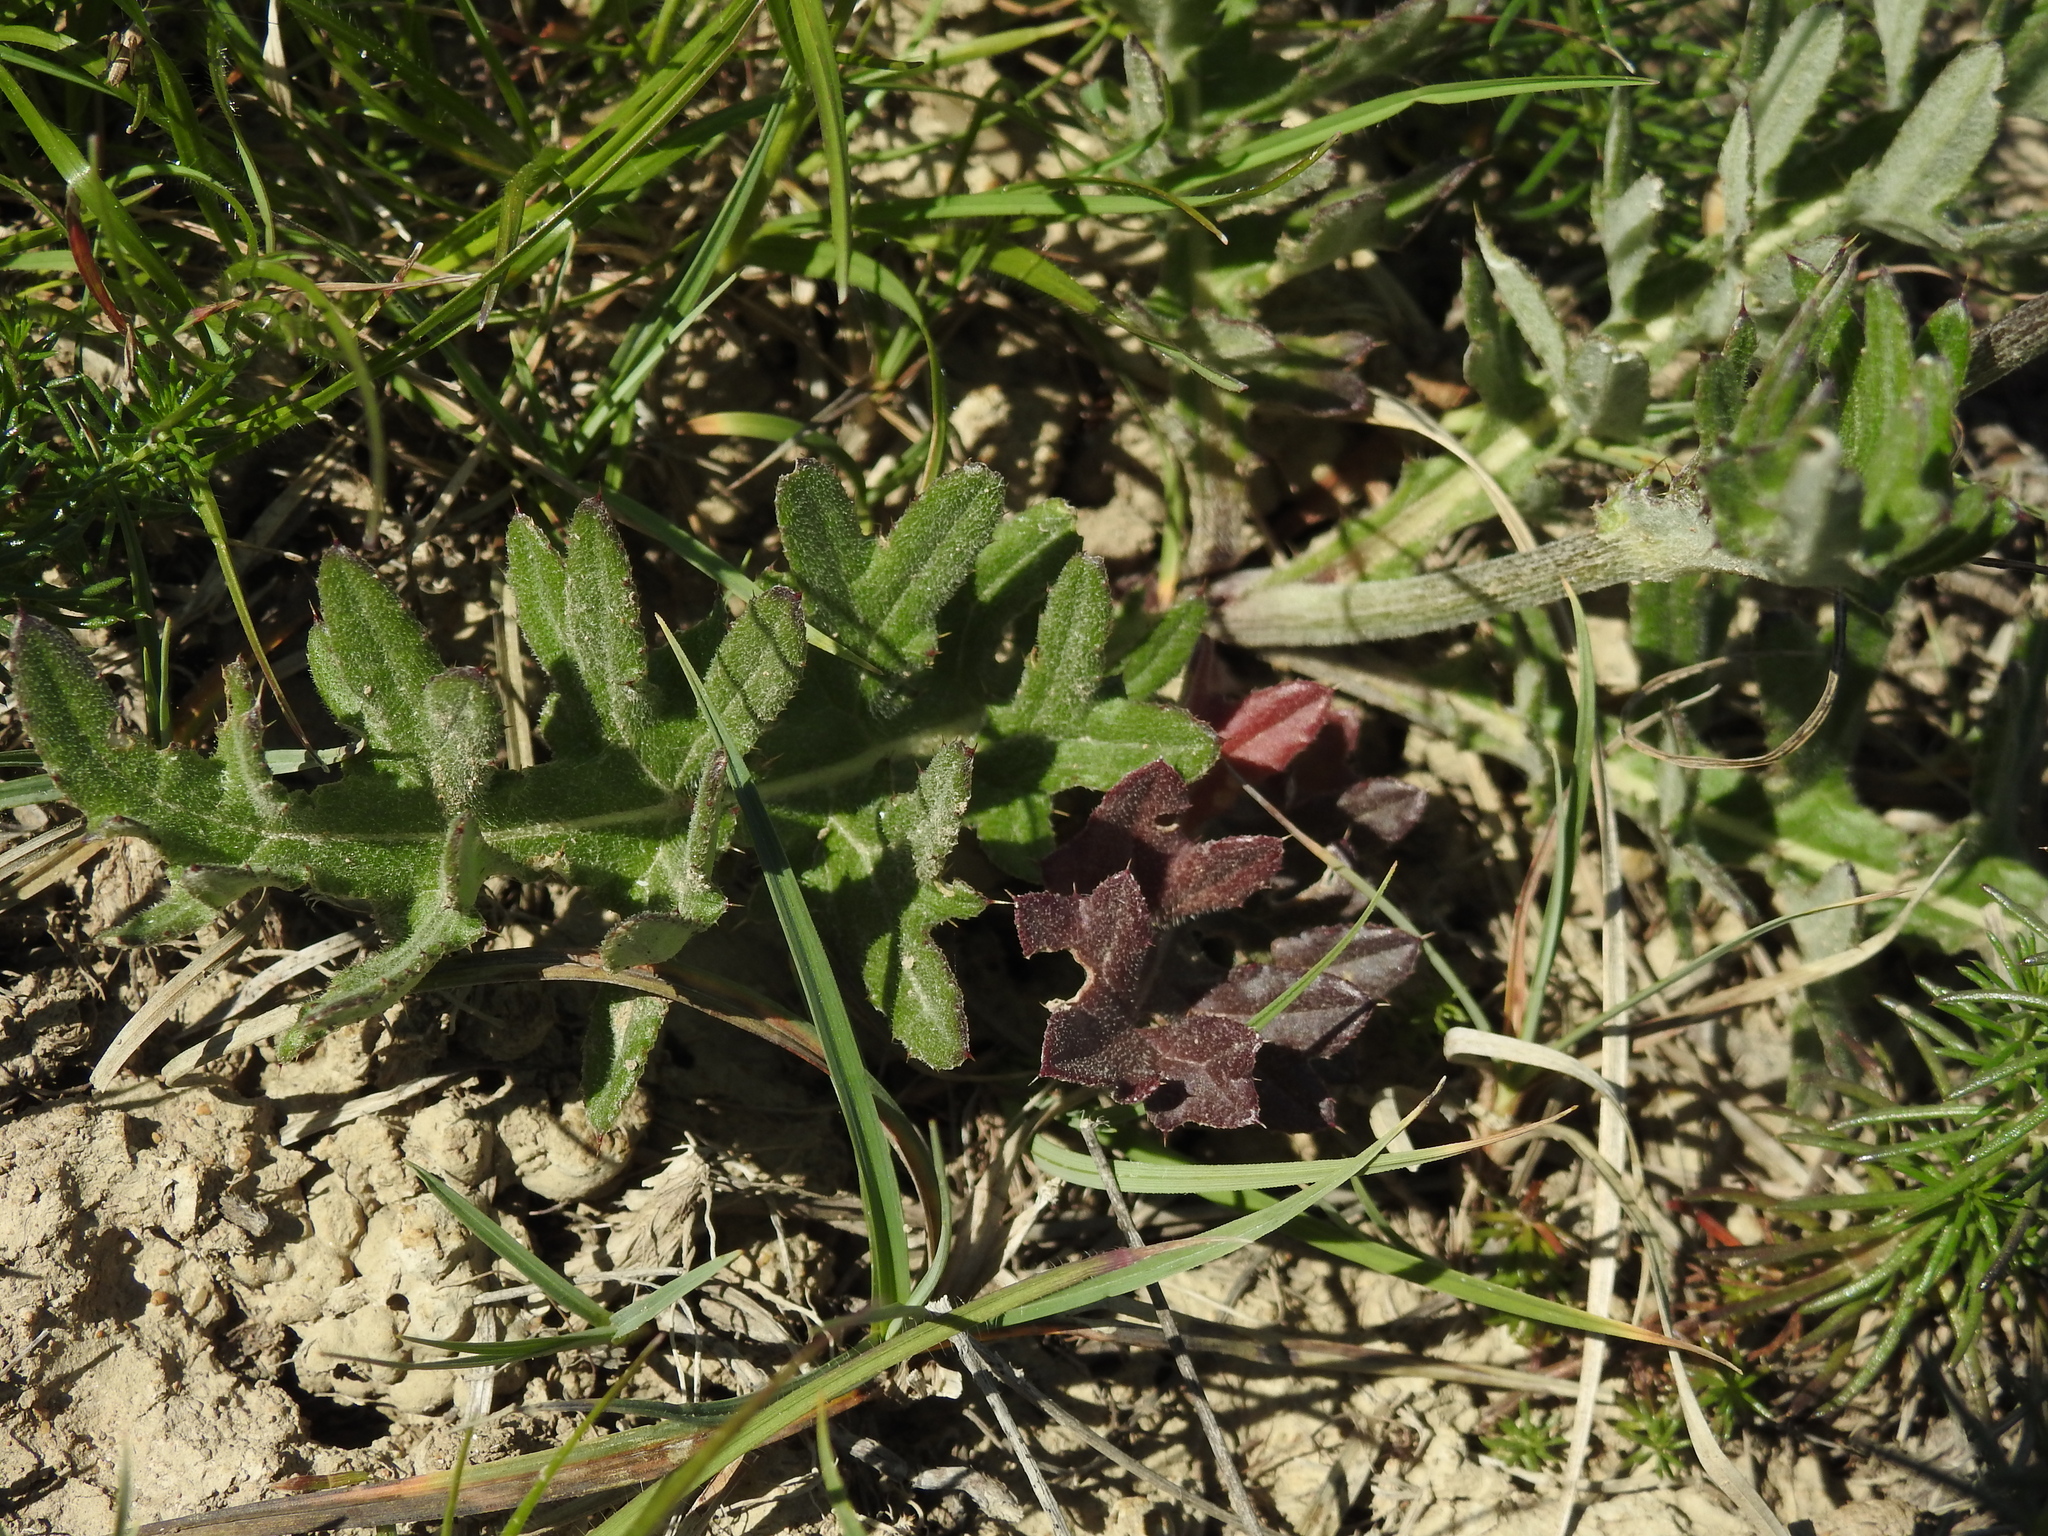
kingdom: Plantae
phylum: Tracheophyta
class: Magnoliopsida
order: Asterales
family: Asteraceae
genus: Cirsium
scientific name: Cirsium tuberosum
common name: Tuberous thistle
